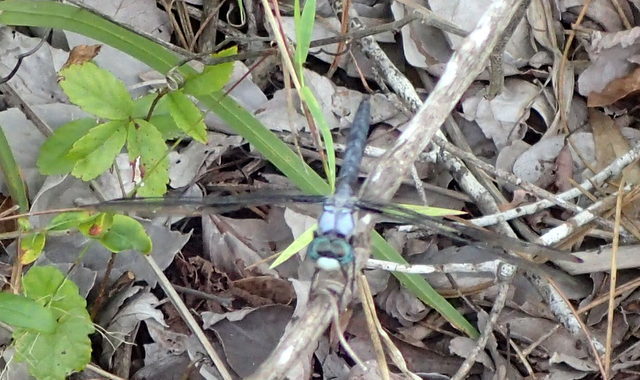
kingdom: Animalia
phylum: Arthropoda
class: Insecta
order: Odonata
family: Libellulidae
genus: Libellula
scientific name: Libellula vibrans
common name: Great blue skimmer
